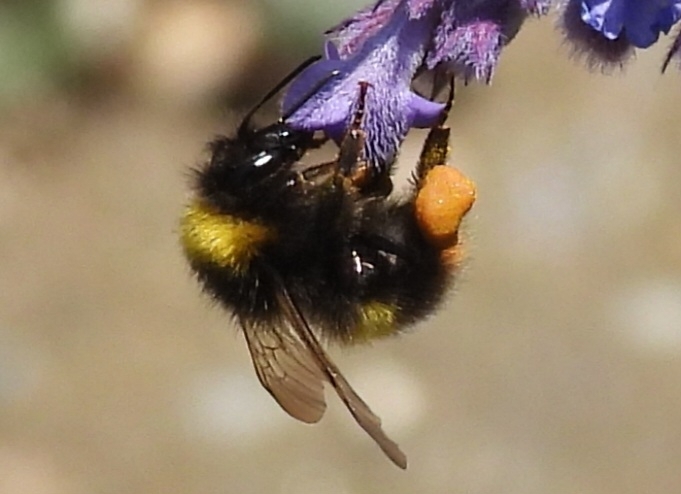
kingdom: Animalia
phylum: Arthropoda
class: Insecta
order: Hymenoptera
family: Apidae
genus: Bombus
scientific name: Bombus pratorum
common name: Early humble-bee
